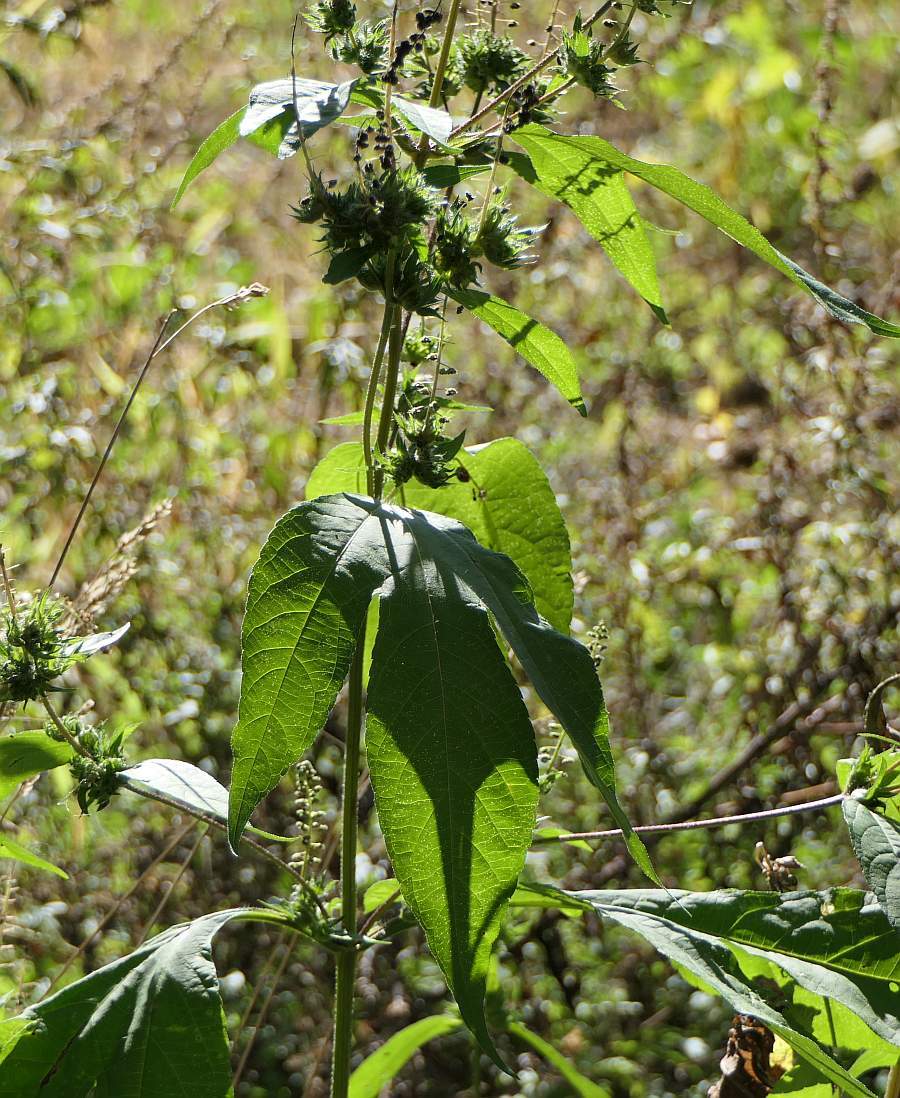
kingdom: Plantae
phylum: Tracheophyta
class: Magnoliopsida
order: Asterales
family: Asteraceae
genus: Ambrosia
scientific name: Ambrosia trifida
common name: Giant ragweed
